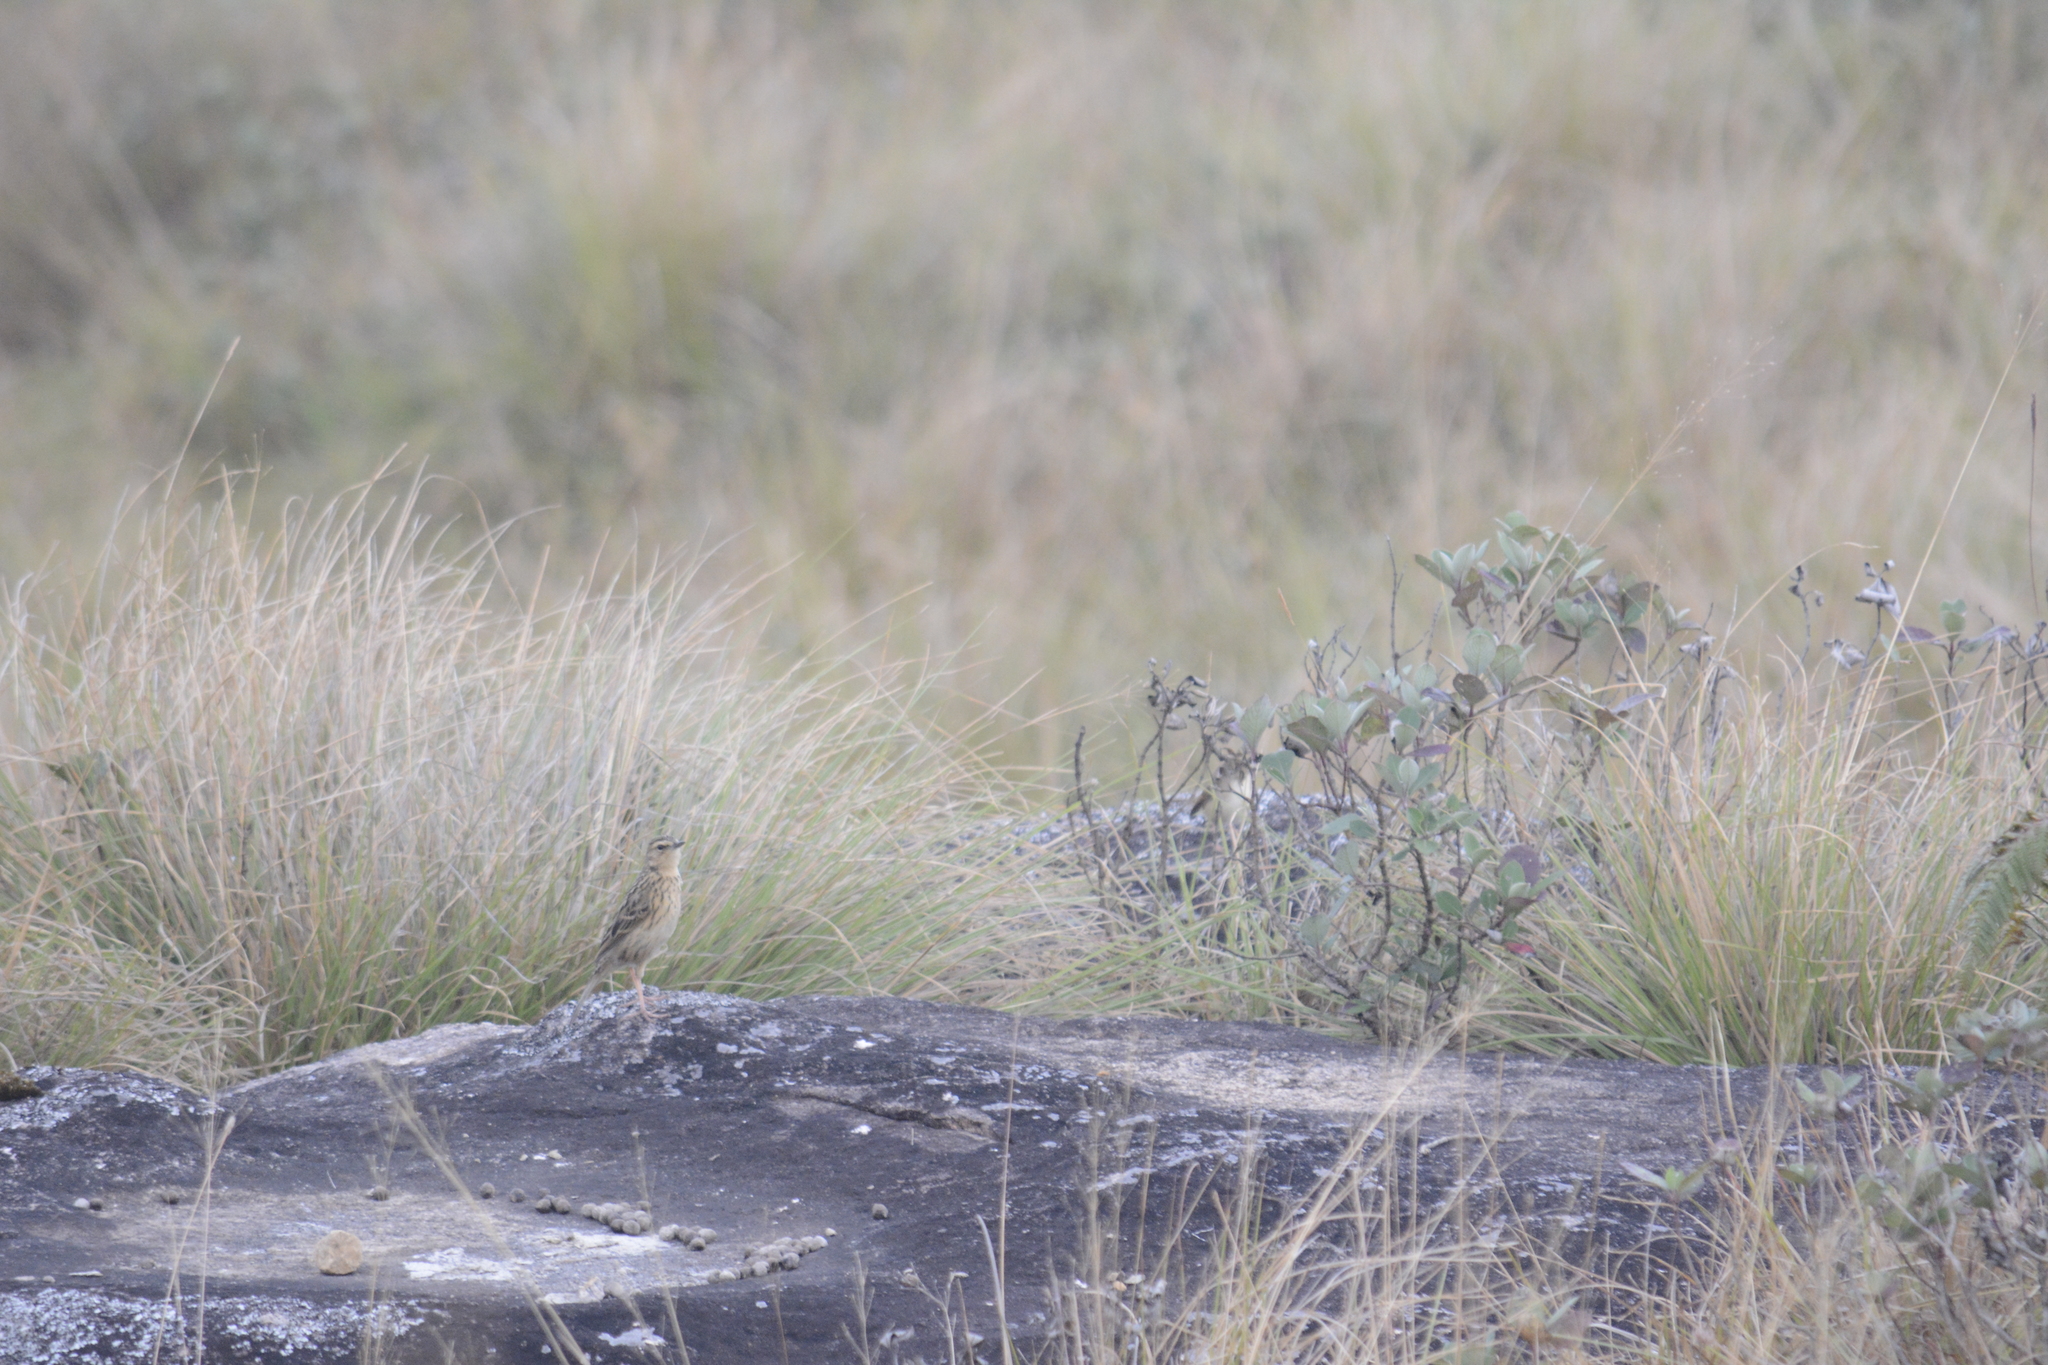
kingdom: Animalia
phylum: Chordata
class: Aves
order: Passeriformes
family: Motacillidae
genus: Anthus
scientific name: Anthus nilghiriensis
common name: Nilgiri pipit
